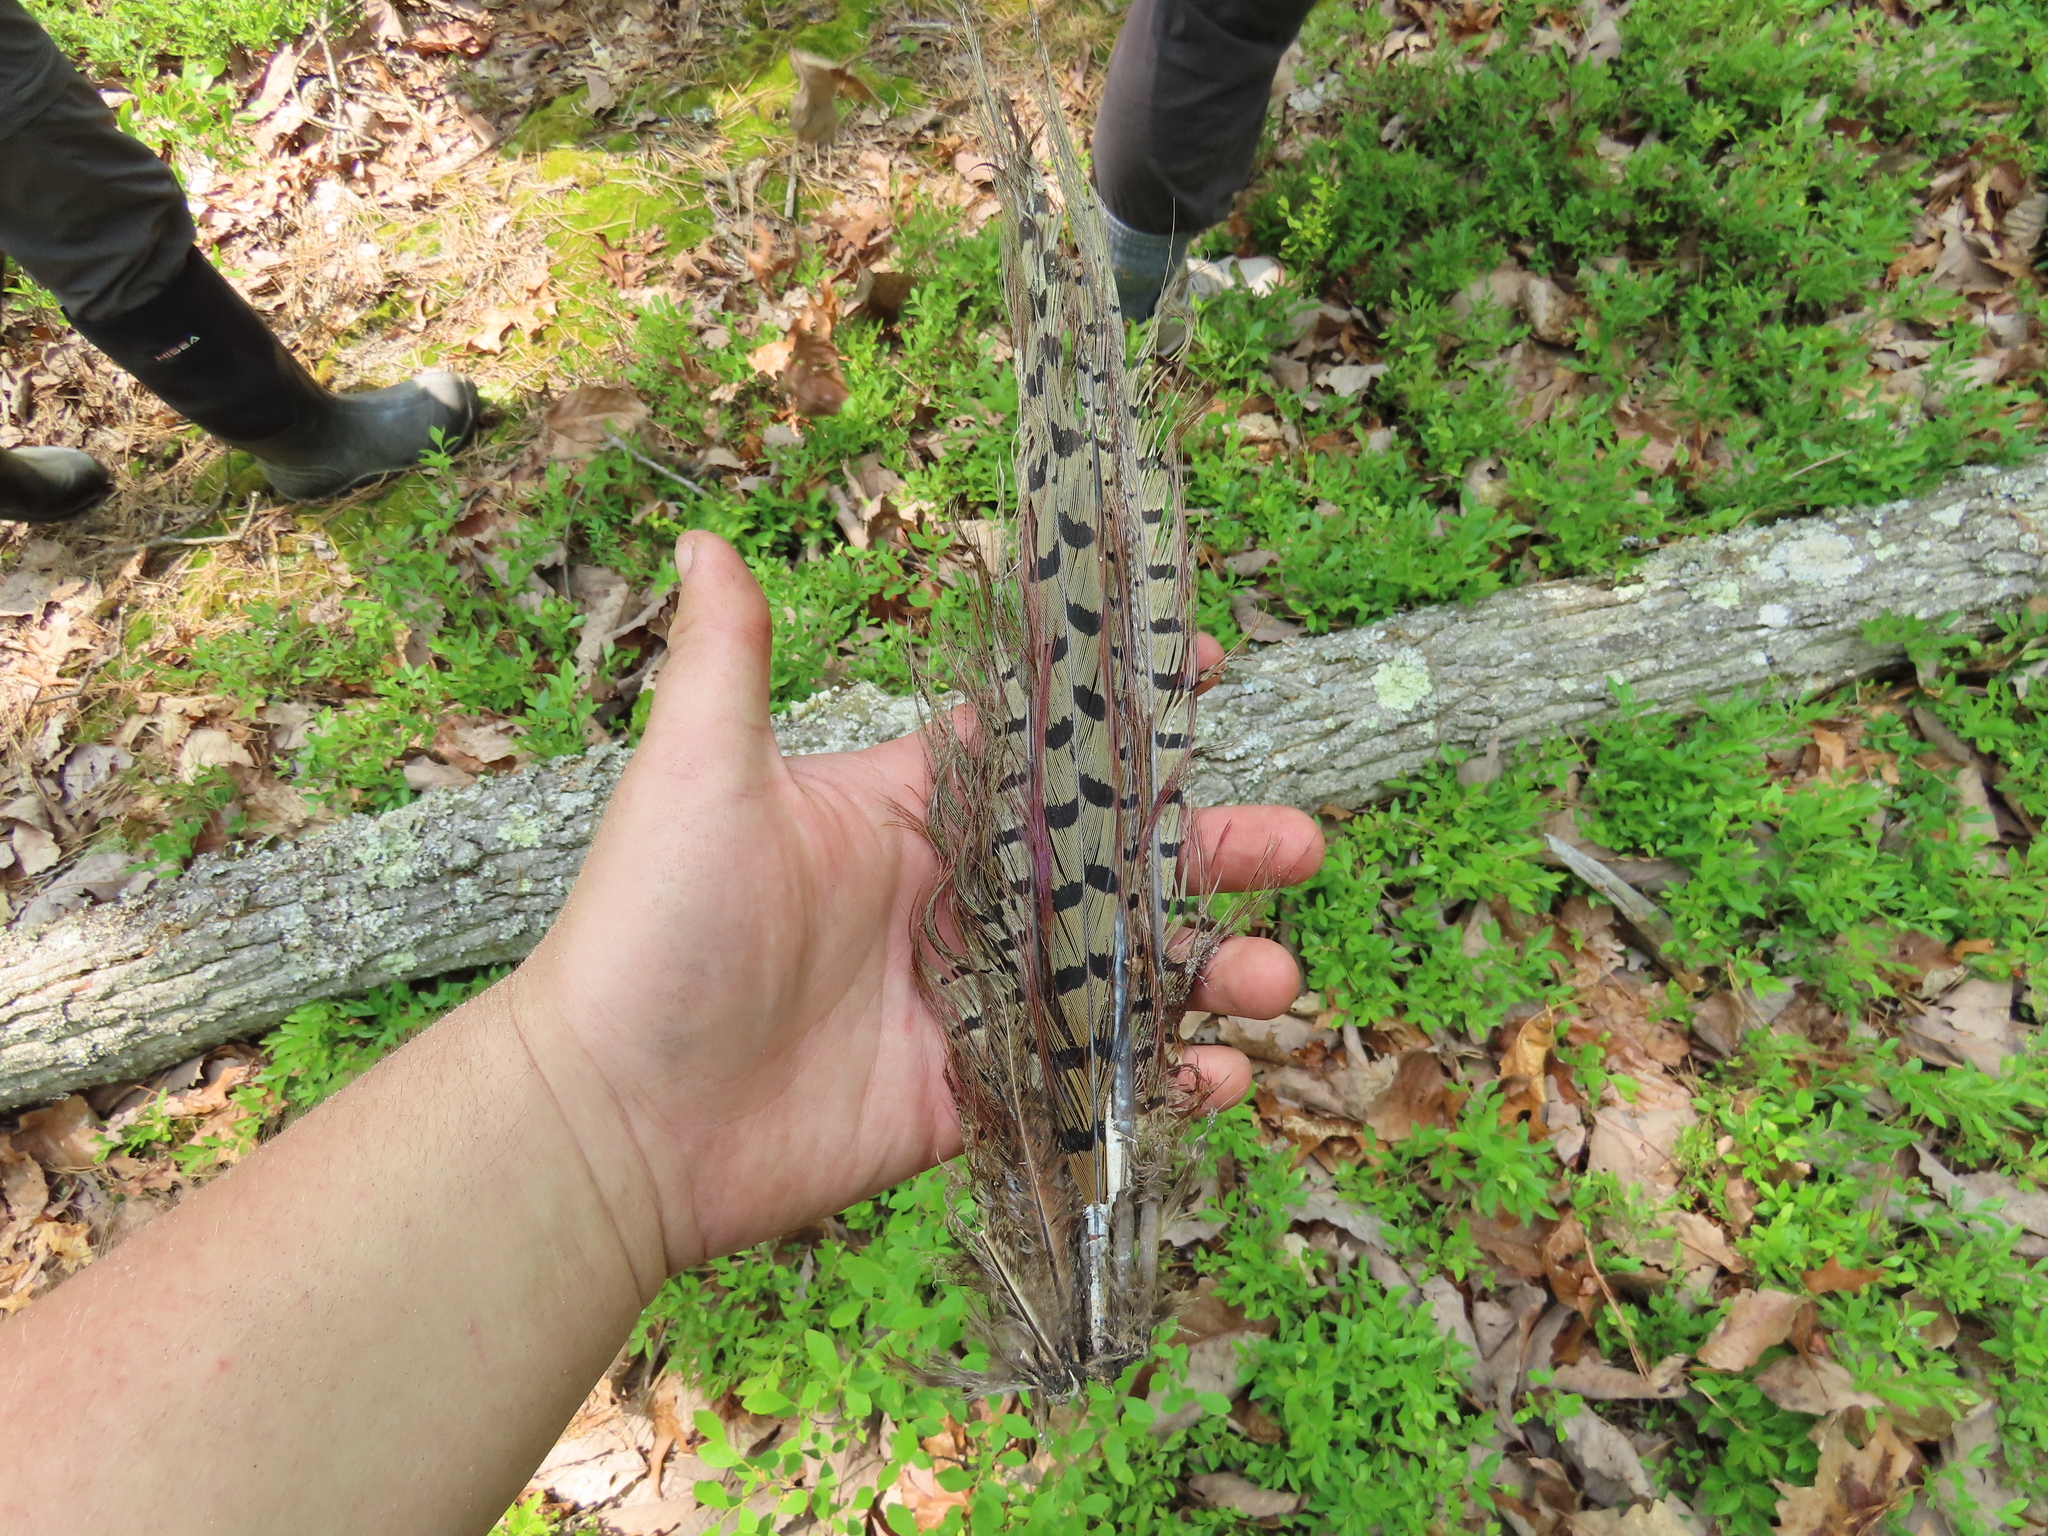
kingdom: Animalia
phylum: Chordata
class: Aves
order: Galliformes
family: Phasianidae
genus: Phasianus
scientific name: Phasianus colchicus
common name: Common pheasant
